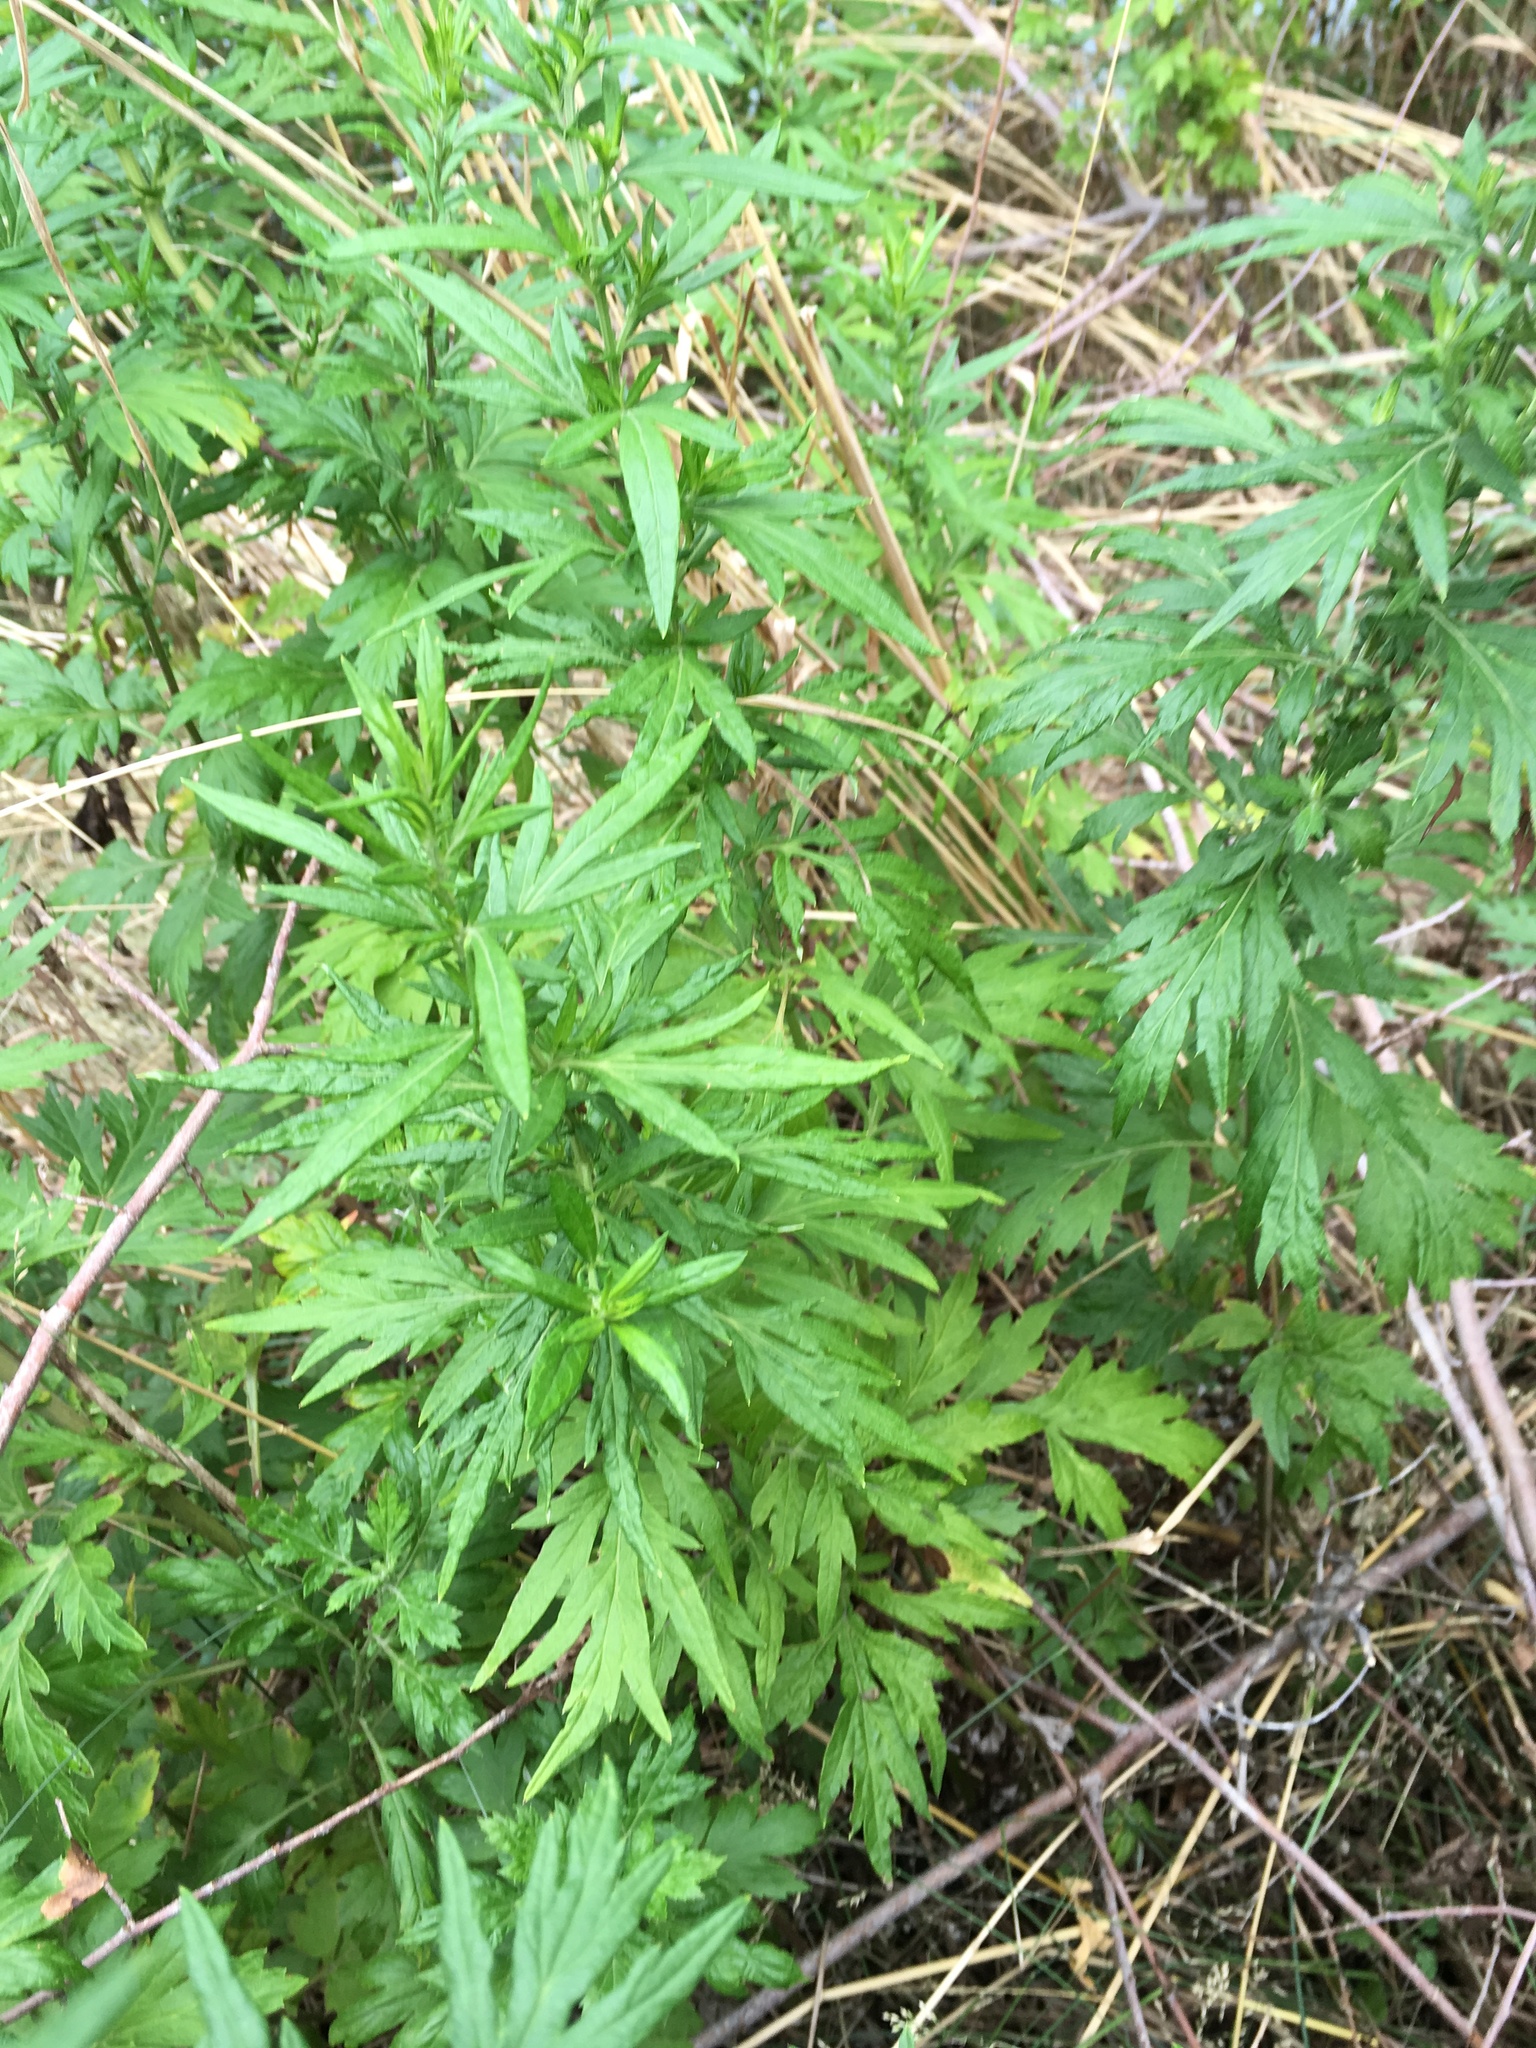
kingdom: Plantae
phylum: Tracheophyta
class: Magnoliopsida
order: Asterales
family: Asteraceae
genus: Artemisia
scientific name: Artemisia vulgaris
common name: Mugwort
